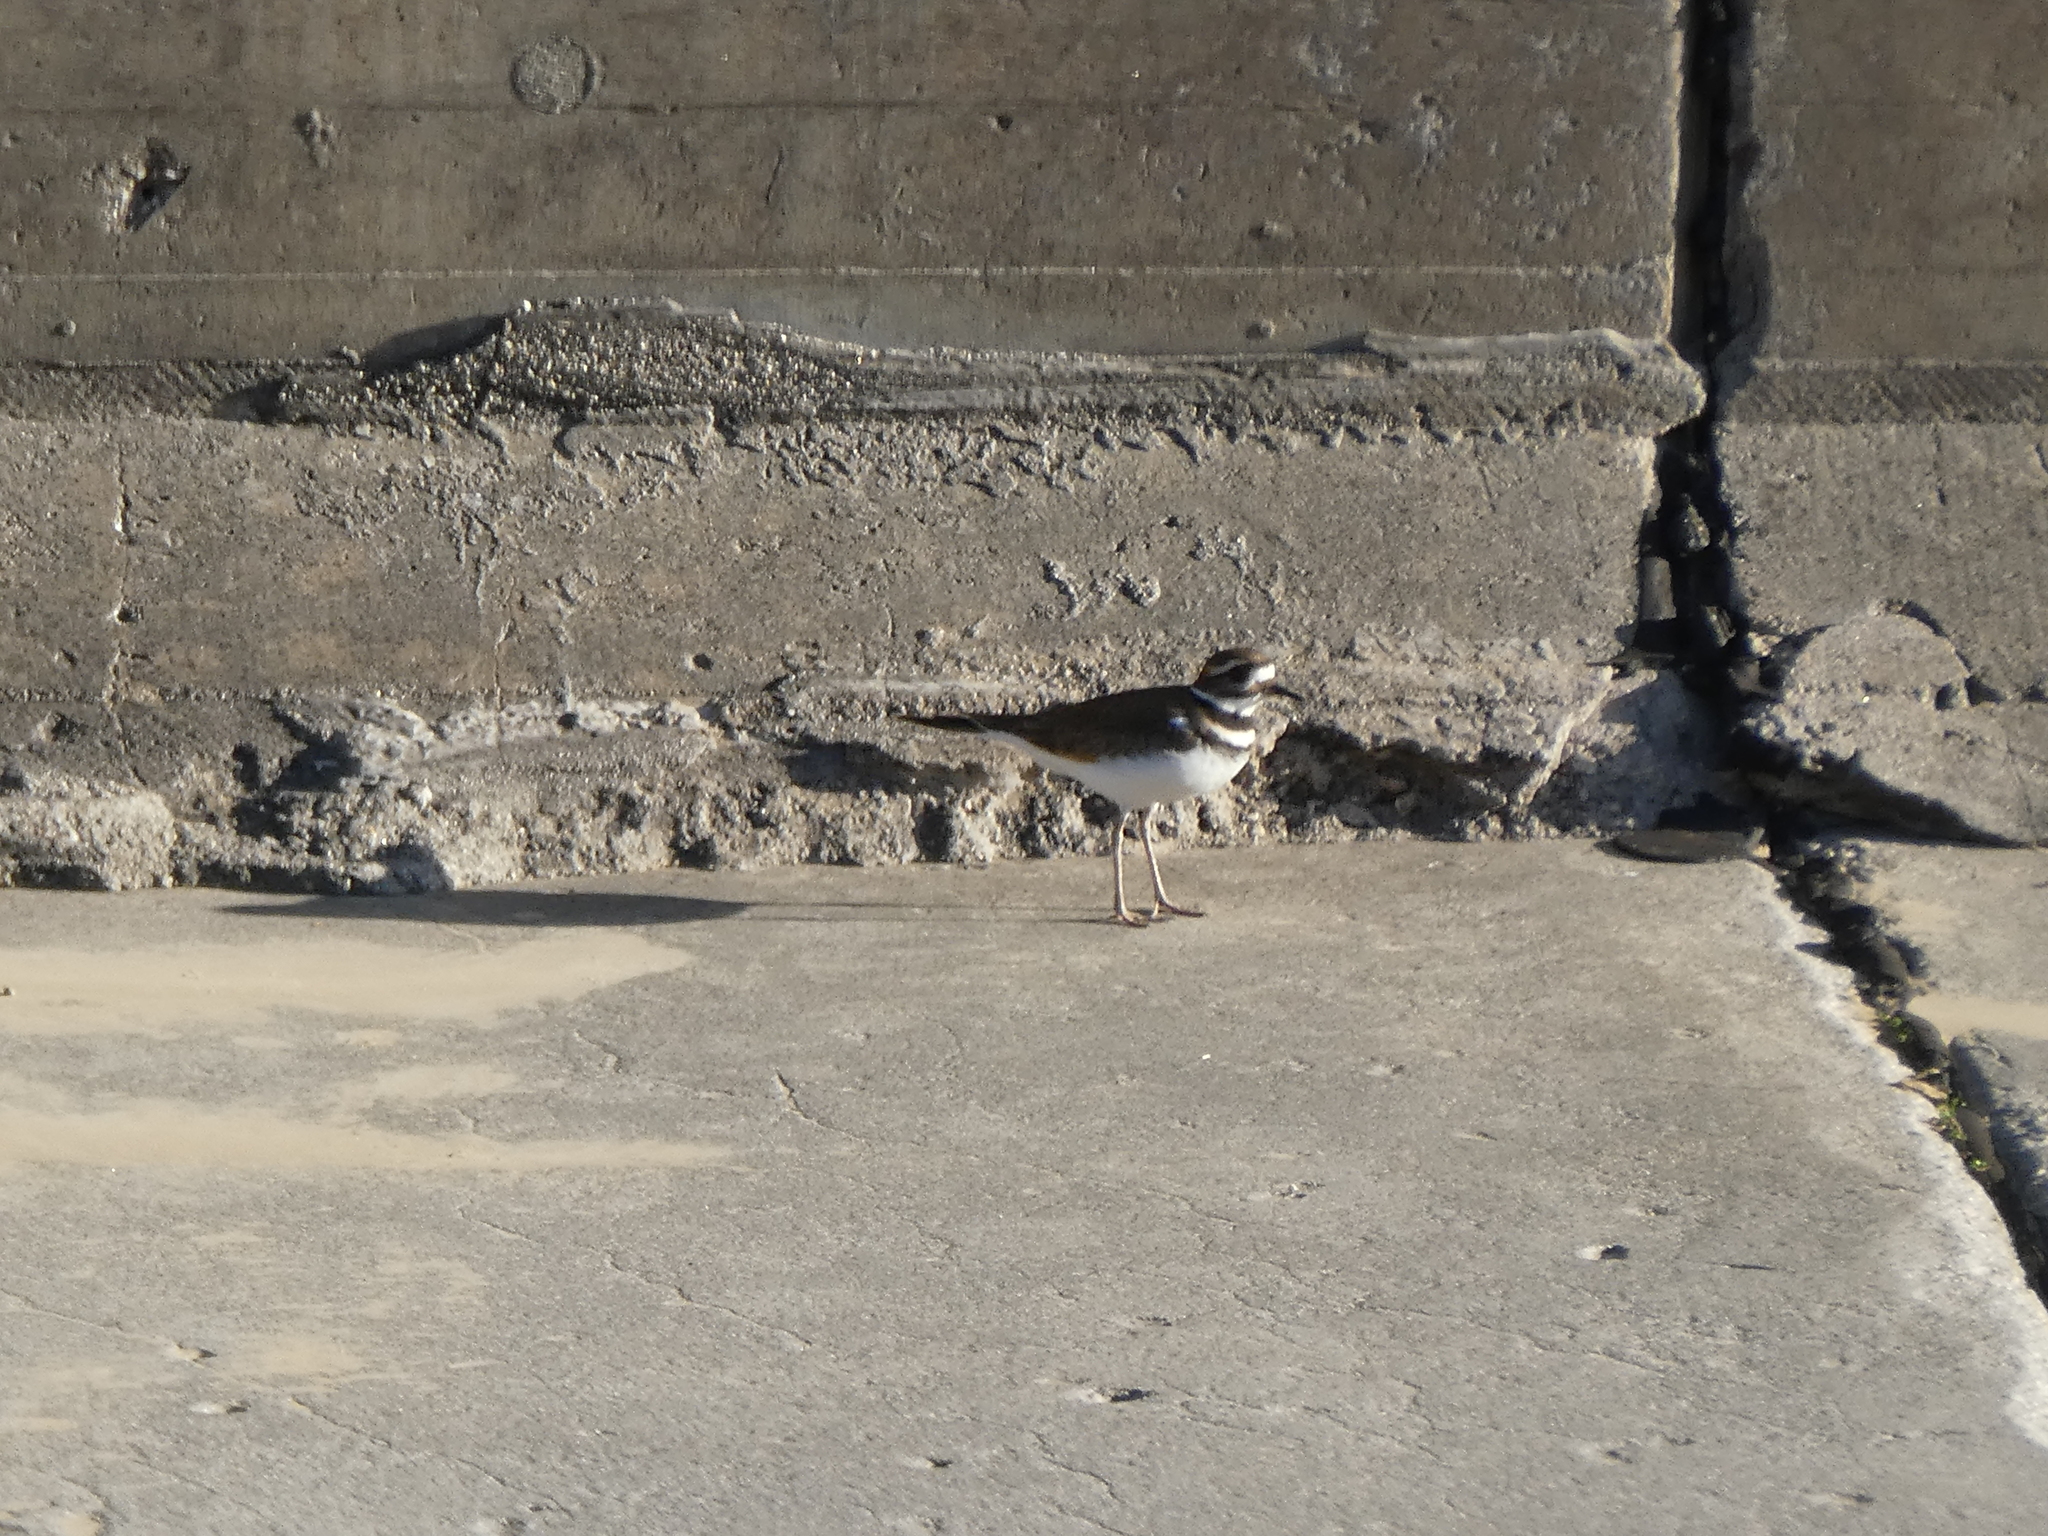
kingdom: Animalia
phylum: Chordata
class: Aves
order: Charadriiformes
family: Charadriidae
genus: Charadrius
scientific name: Charadrius vociferus
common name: Killdeer
